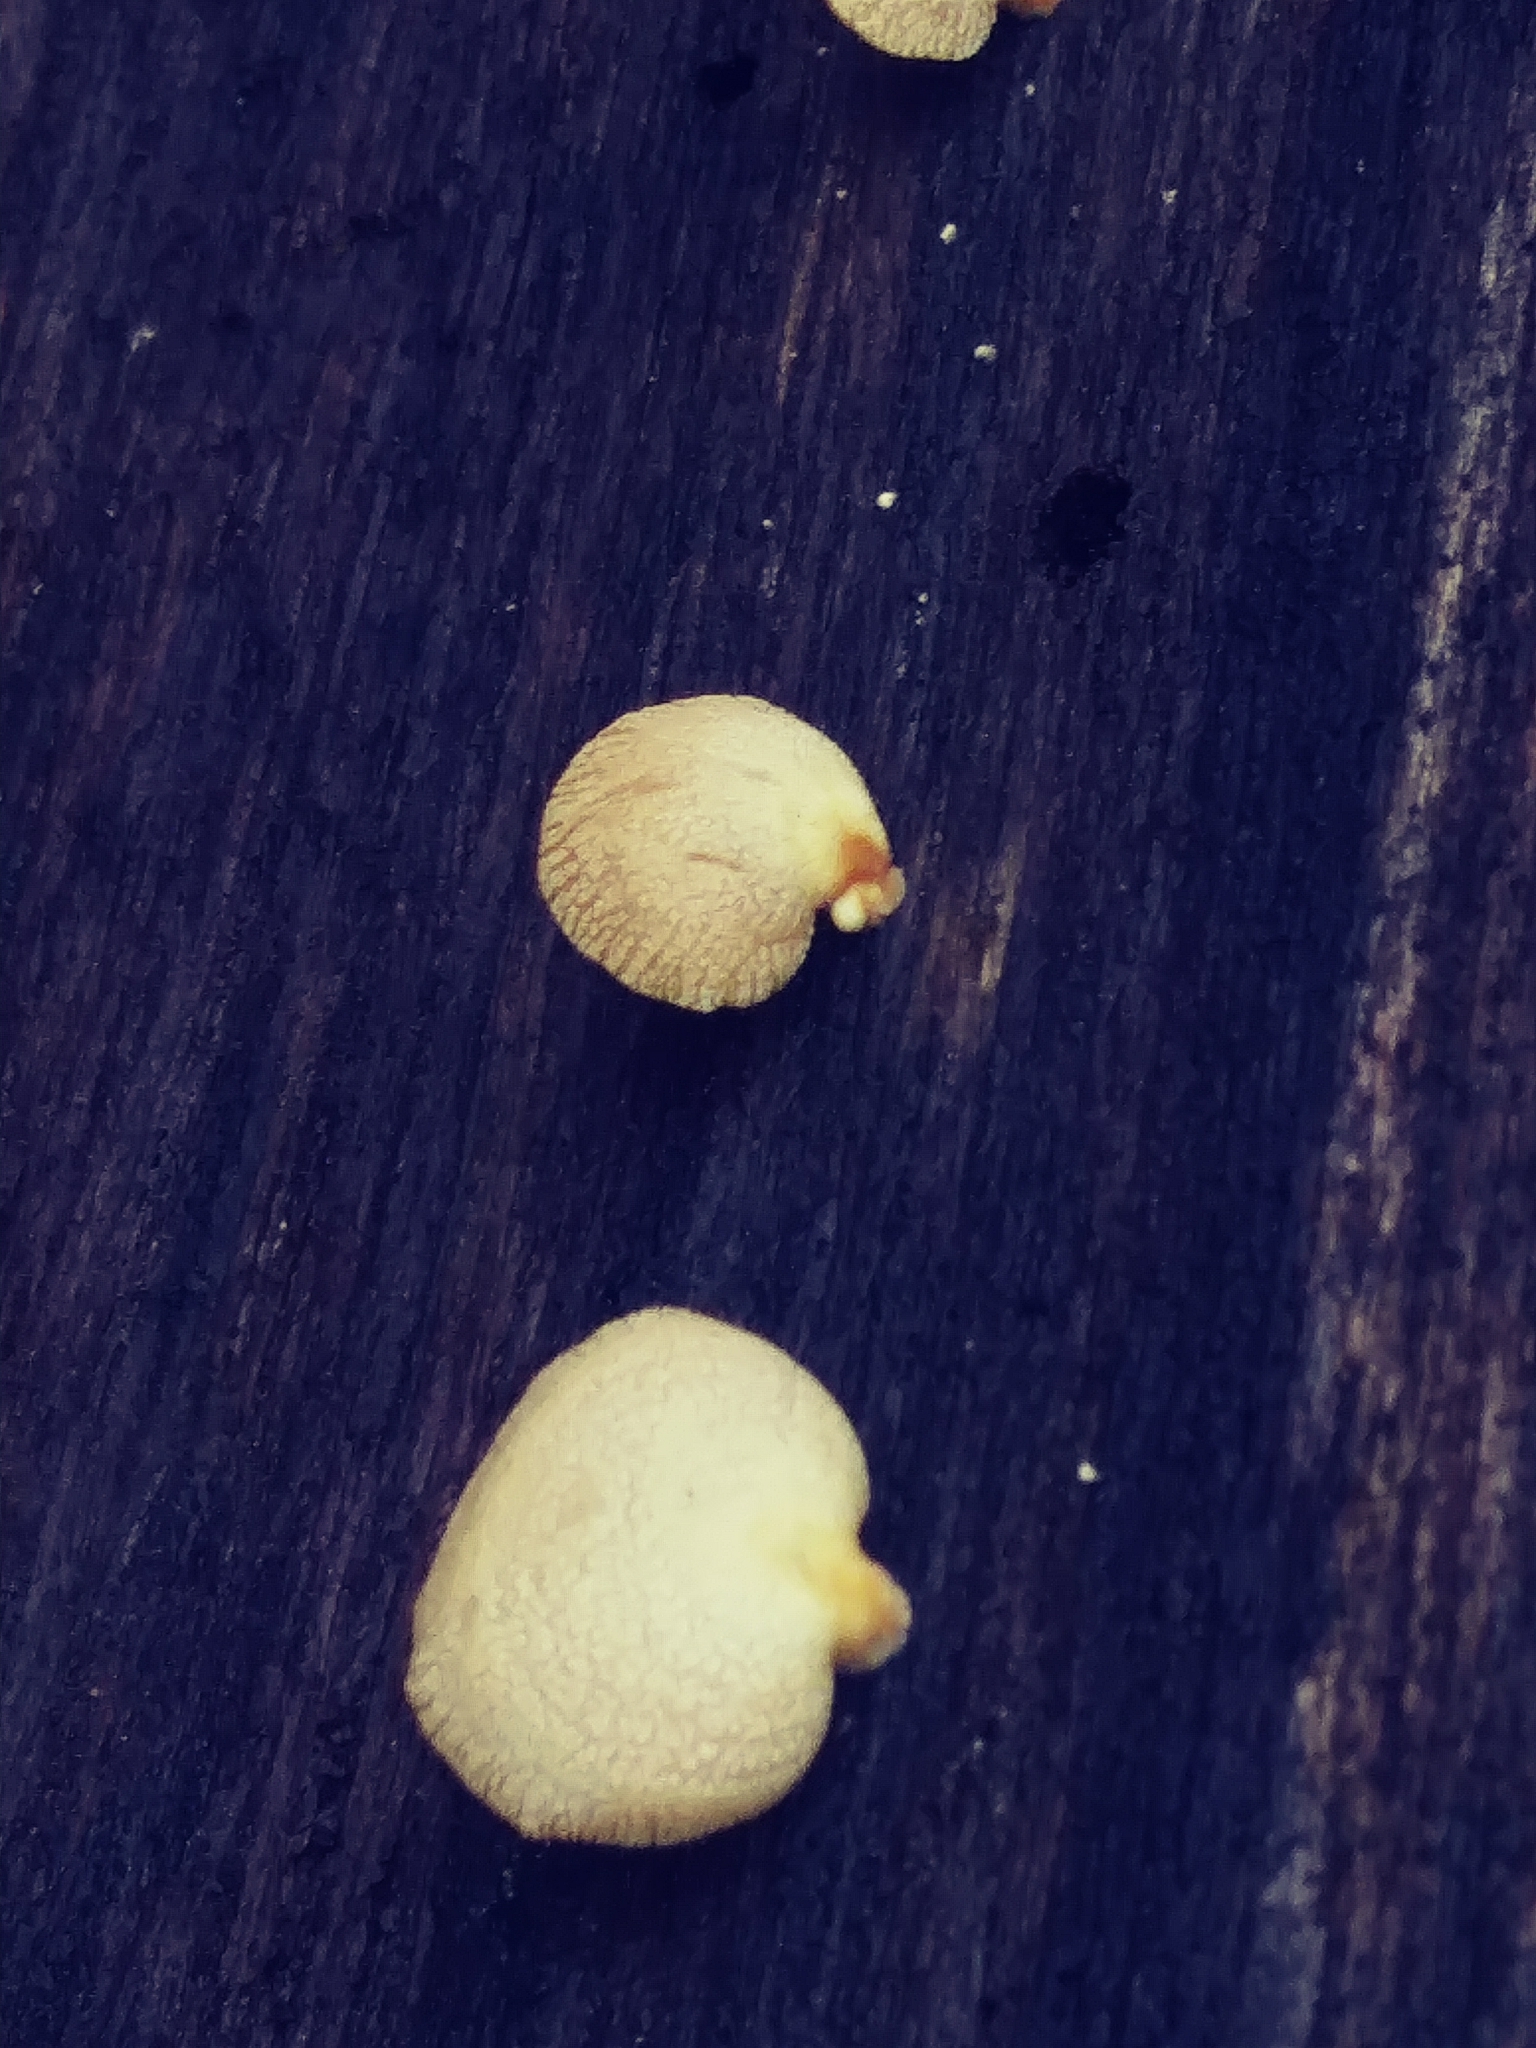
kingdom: Fungi
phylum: Basidiomycota
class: Agaricomycetes
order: Agaricales
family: Mycenaceae
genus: Panellus
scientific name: Panellus stipticus
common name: Bitter oysterling
